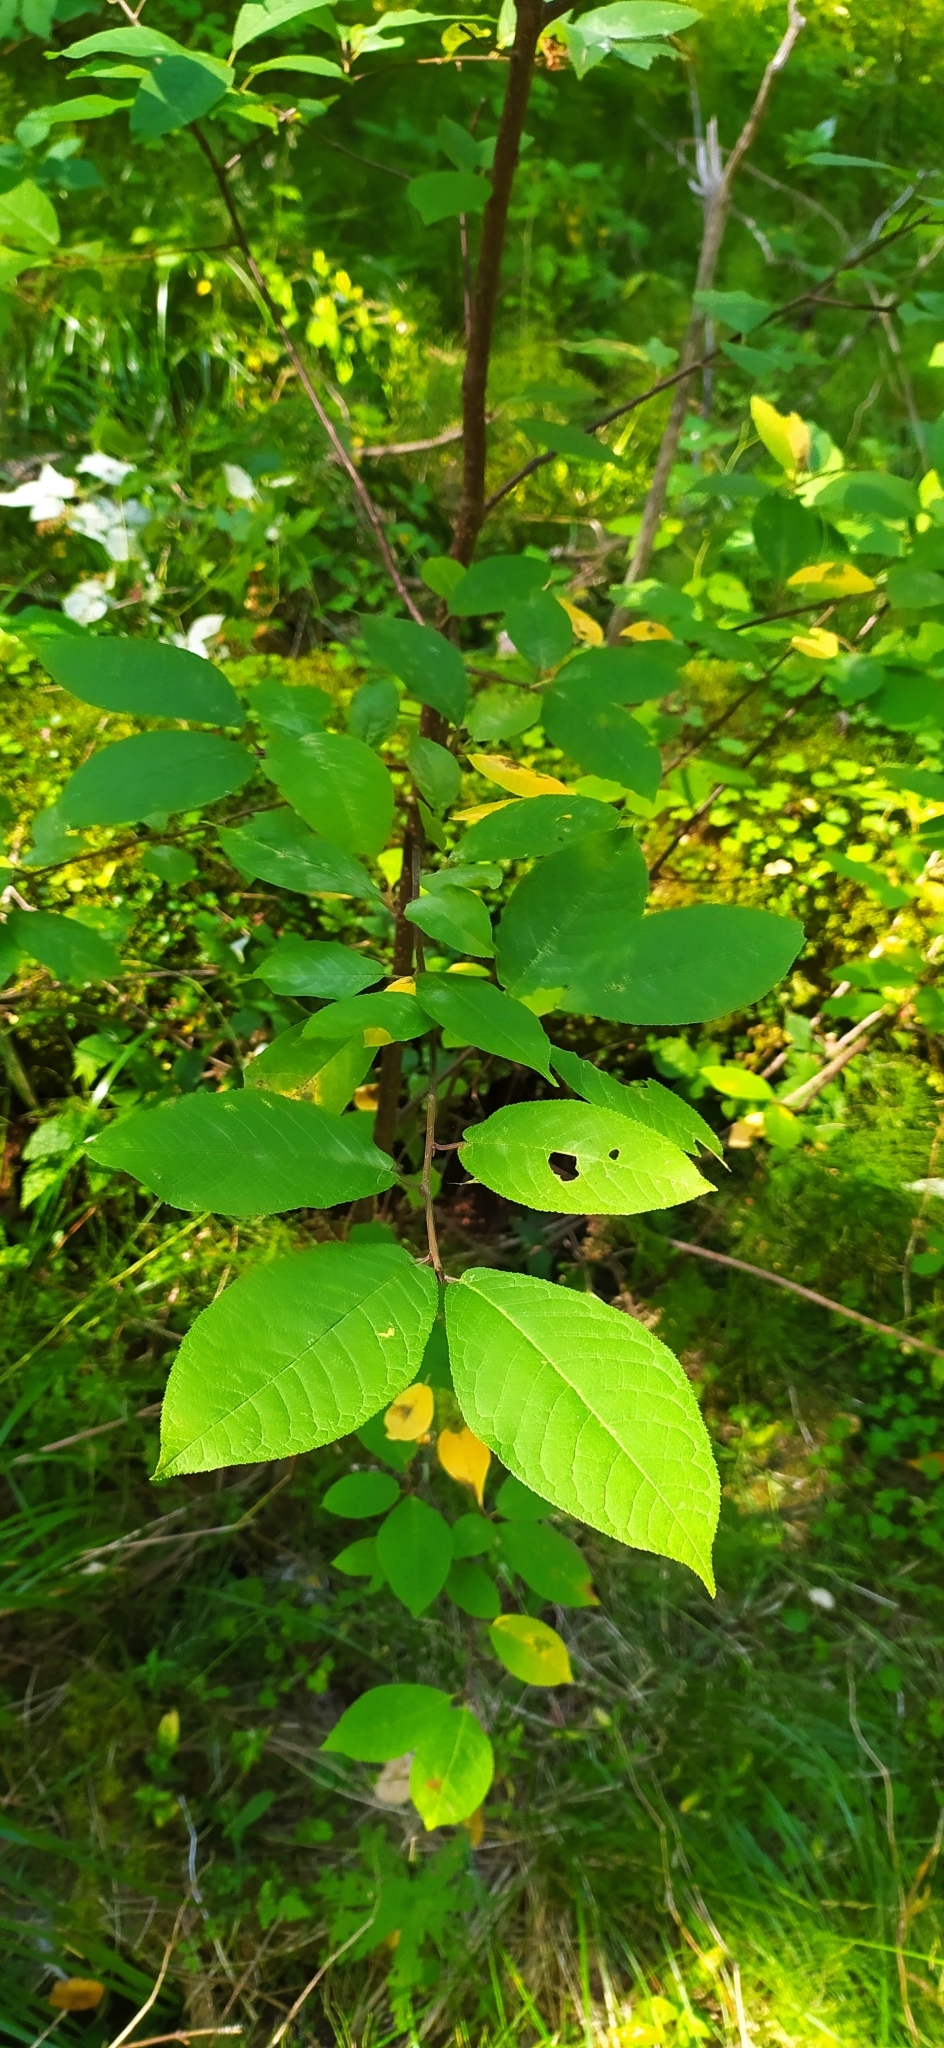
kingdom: Plantae
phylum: Tracheophyta
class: Magnoliopsida
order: Rosales
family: Rosaceae
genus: Prunus
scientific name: Prunus padus
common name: Bird cherry
